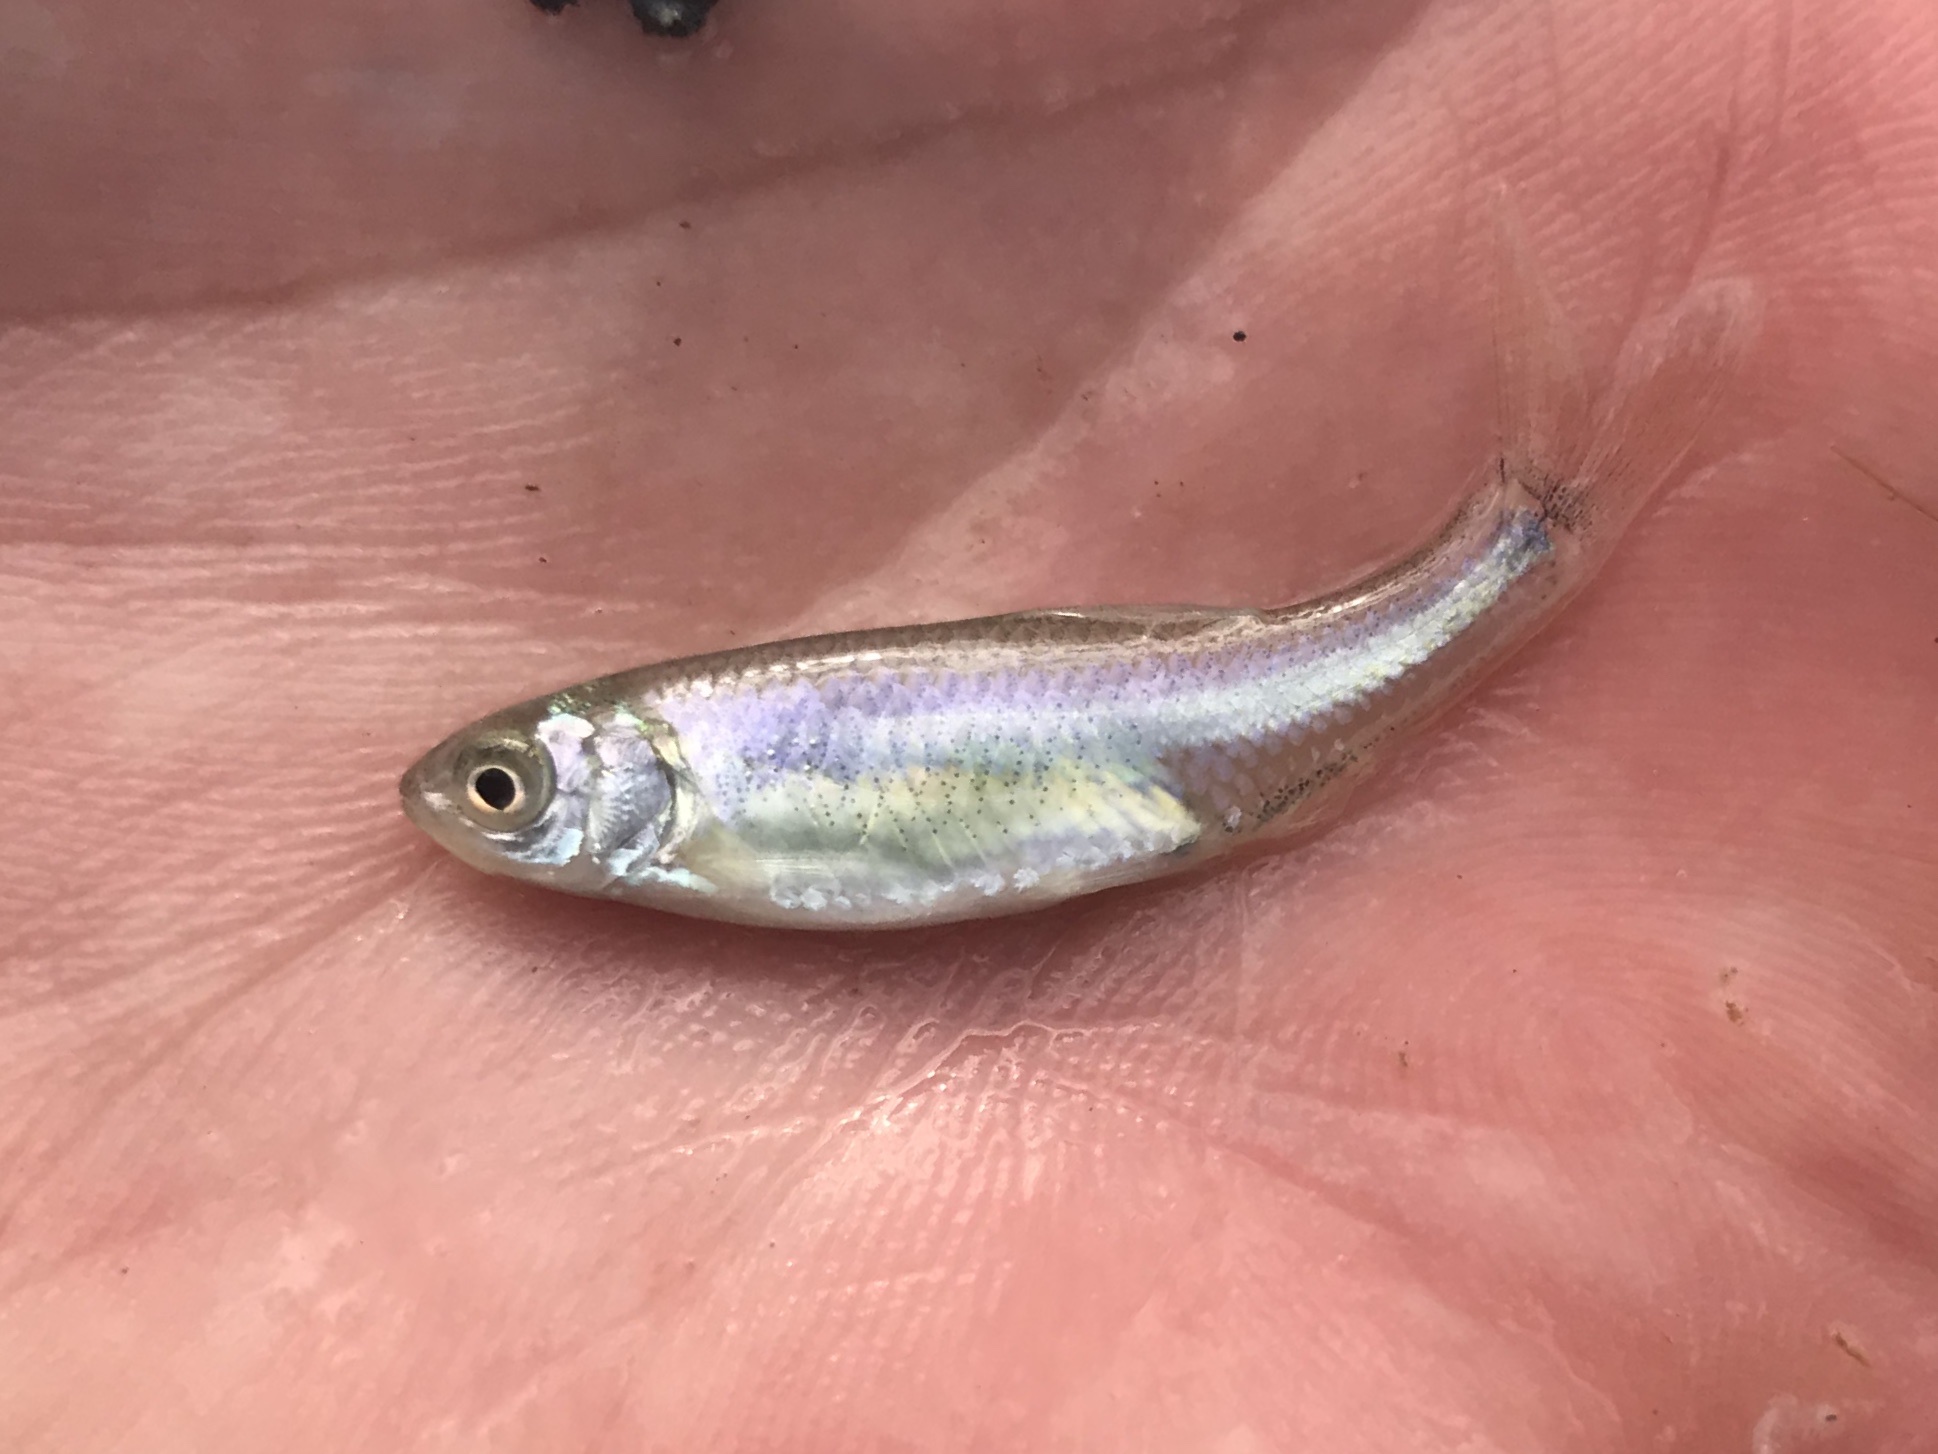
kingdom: Animalia
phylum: Chordata
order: Cypriniformes
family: Cyprinidae
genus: Cyprinella
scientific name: Cyprinella lutrensis
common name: Red shiner
